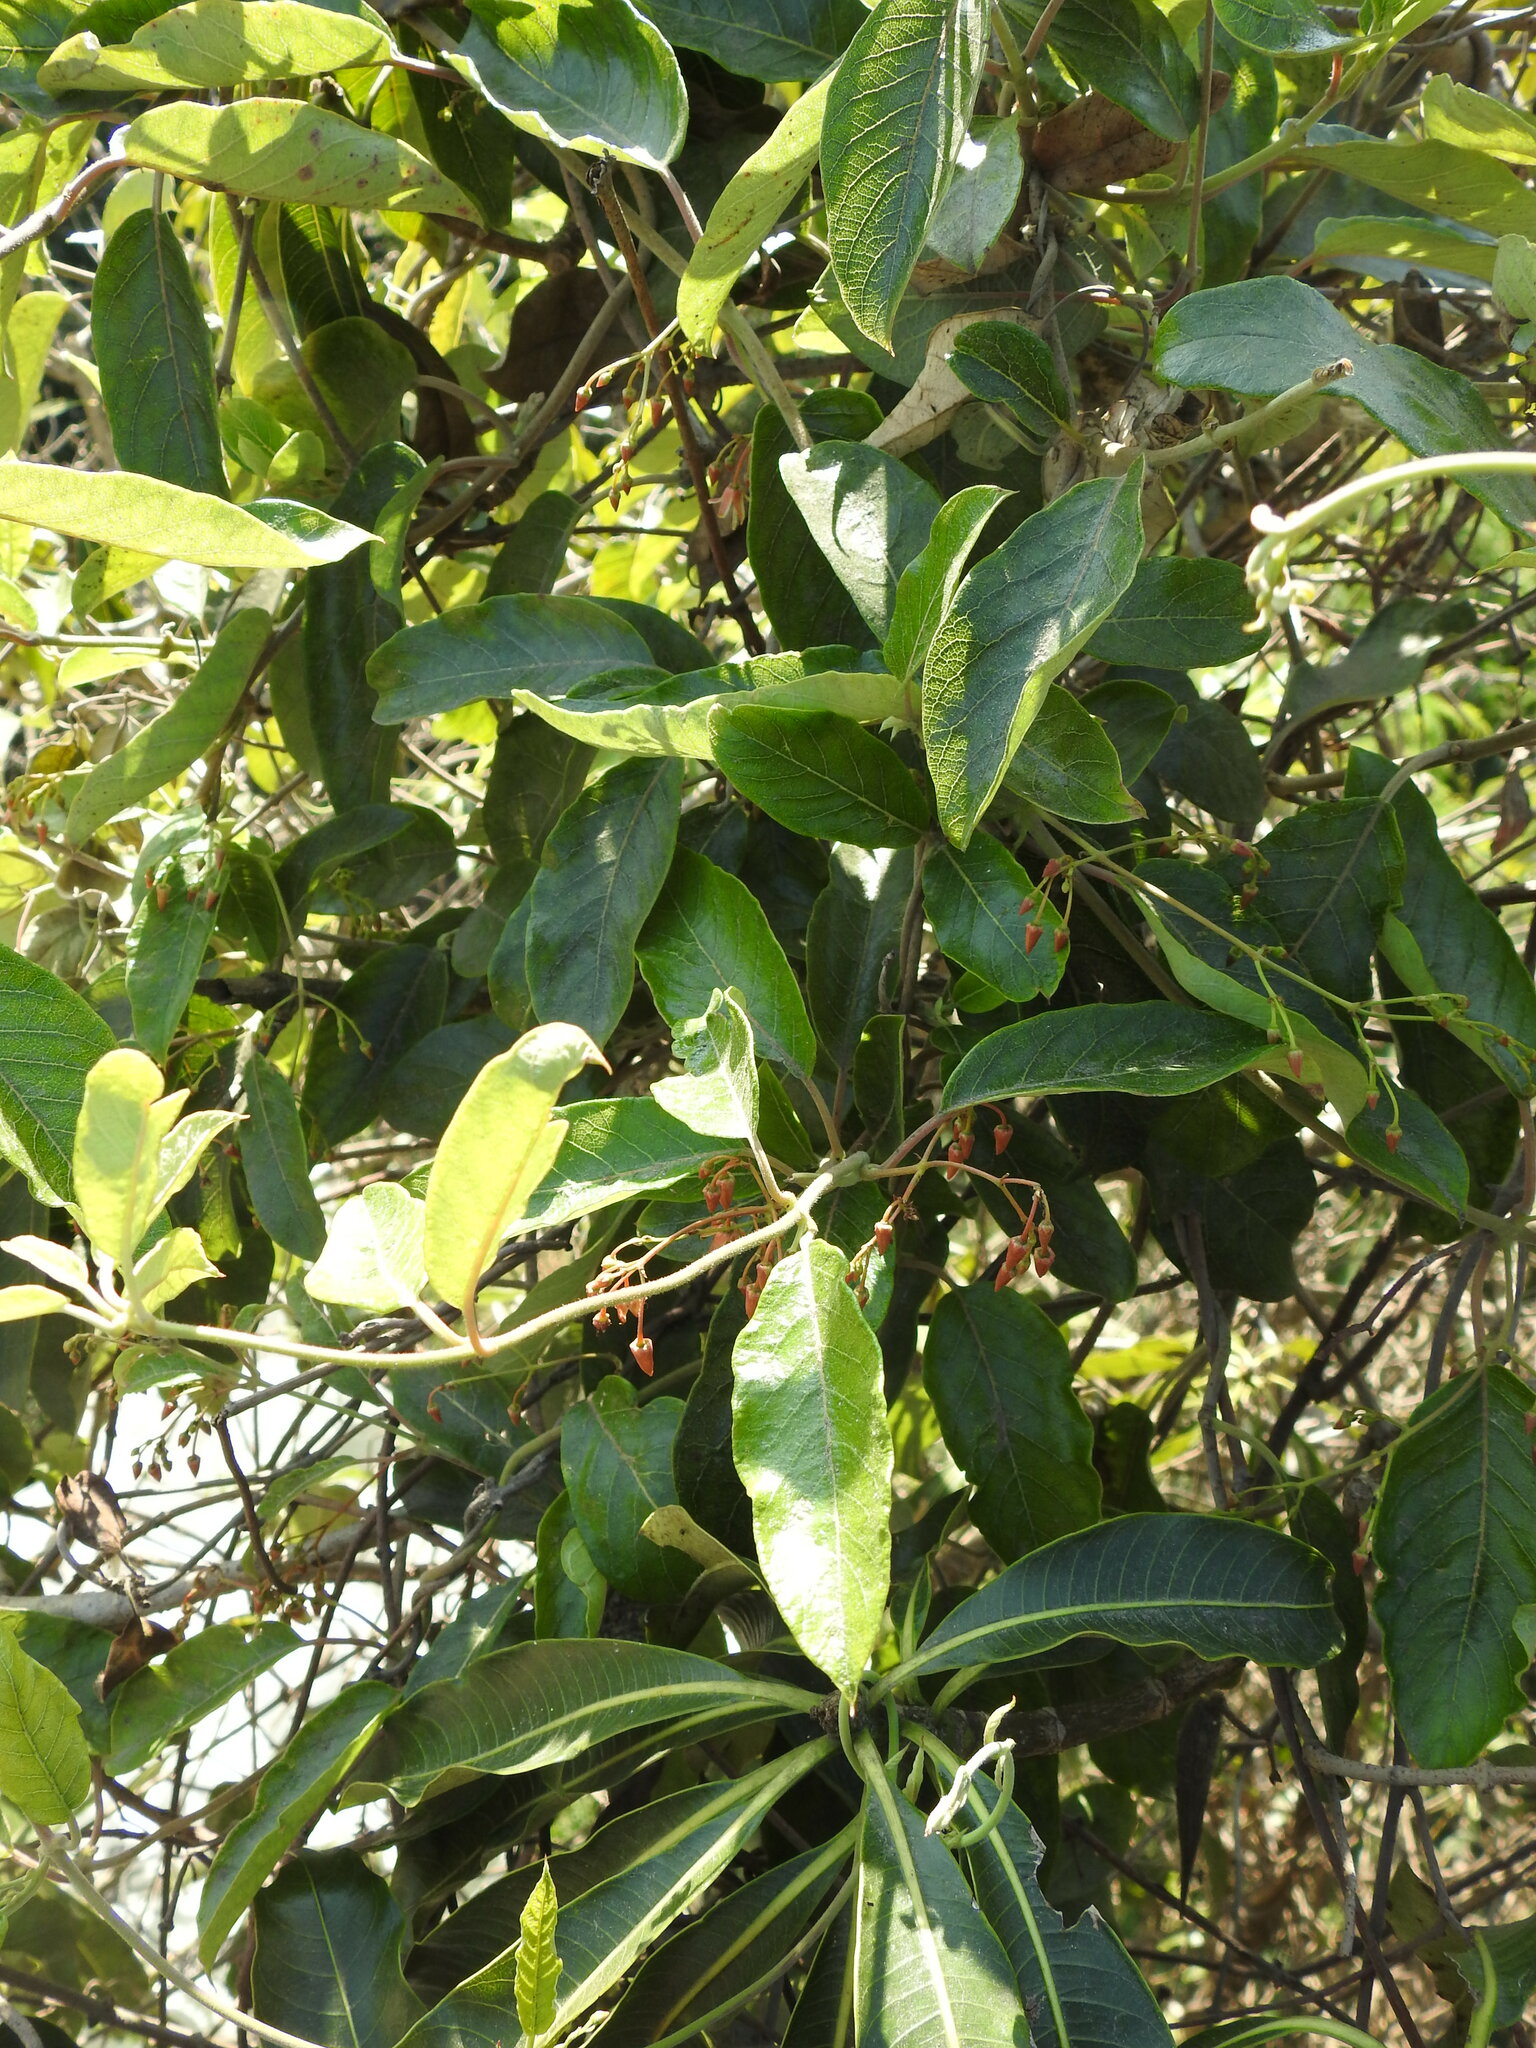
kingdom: Plantae
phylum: Tracheophyta
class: Magnoliopsida
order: Gentianales
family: Apocynaceae
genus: Tacazzea
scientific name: Tacazzea apiculata
